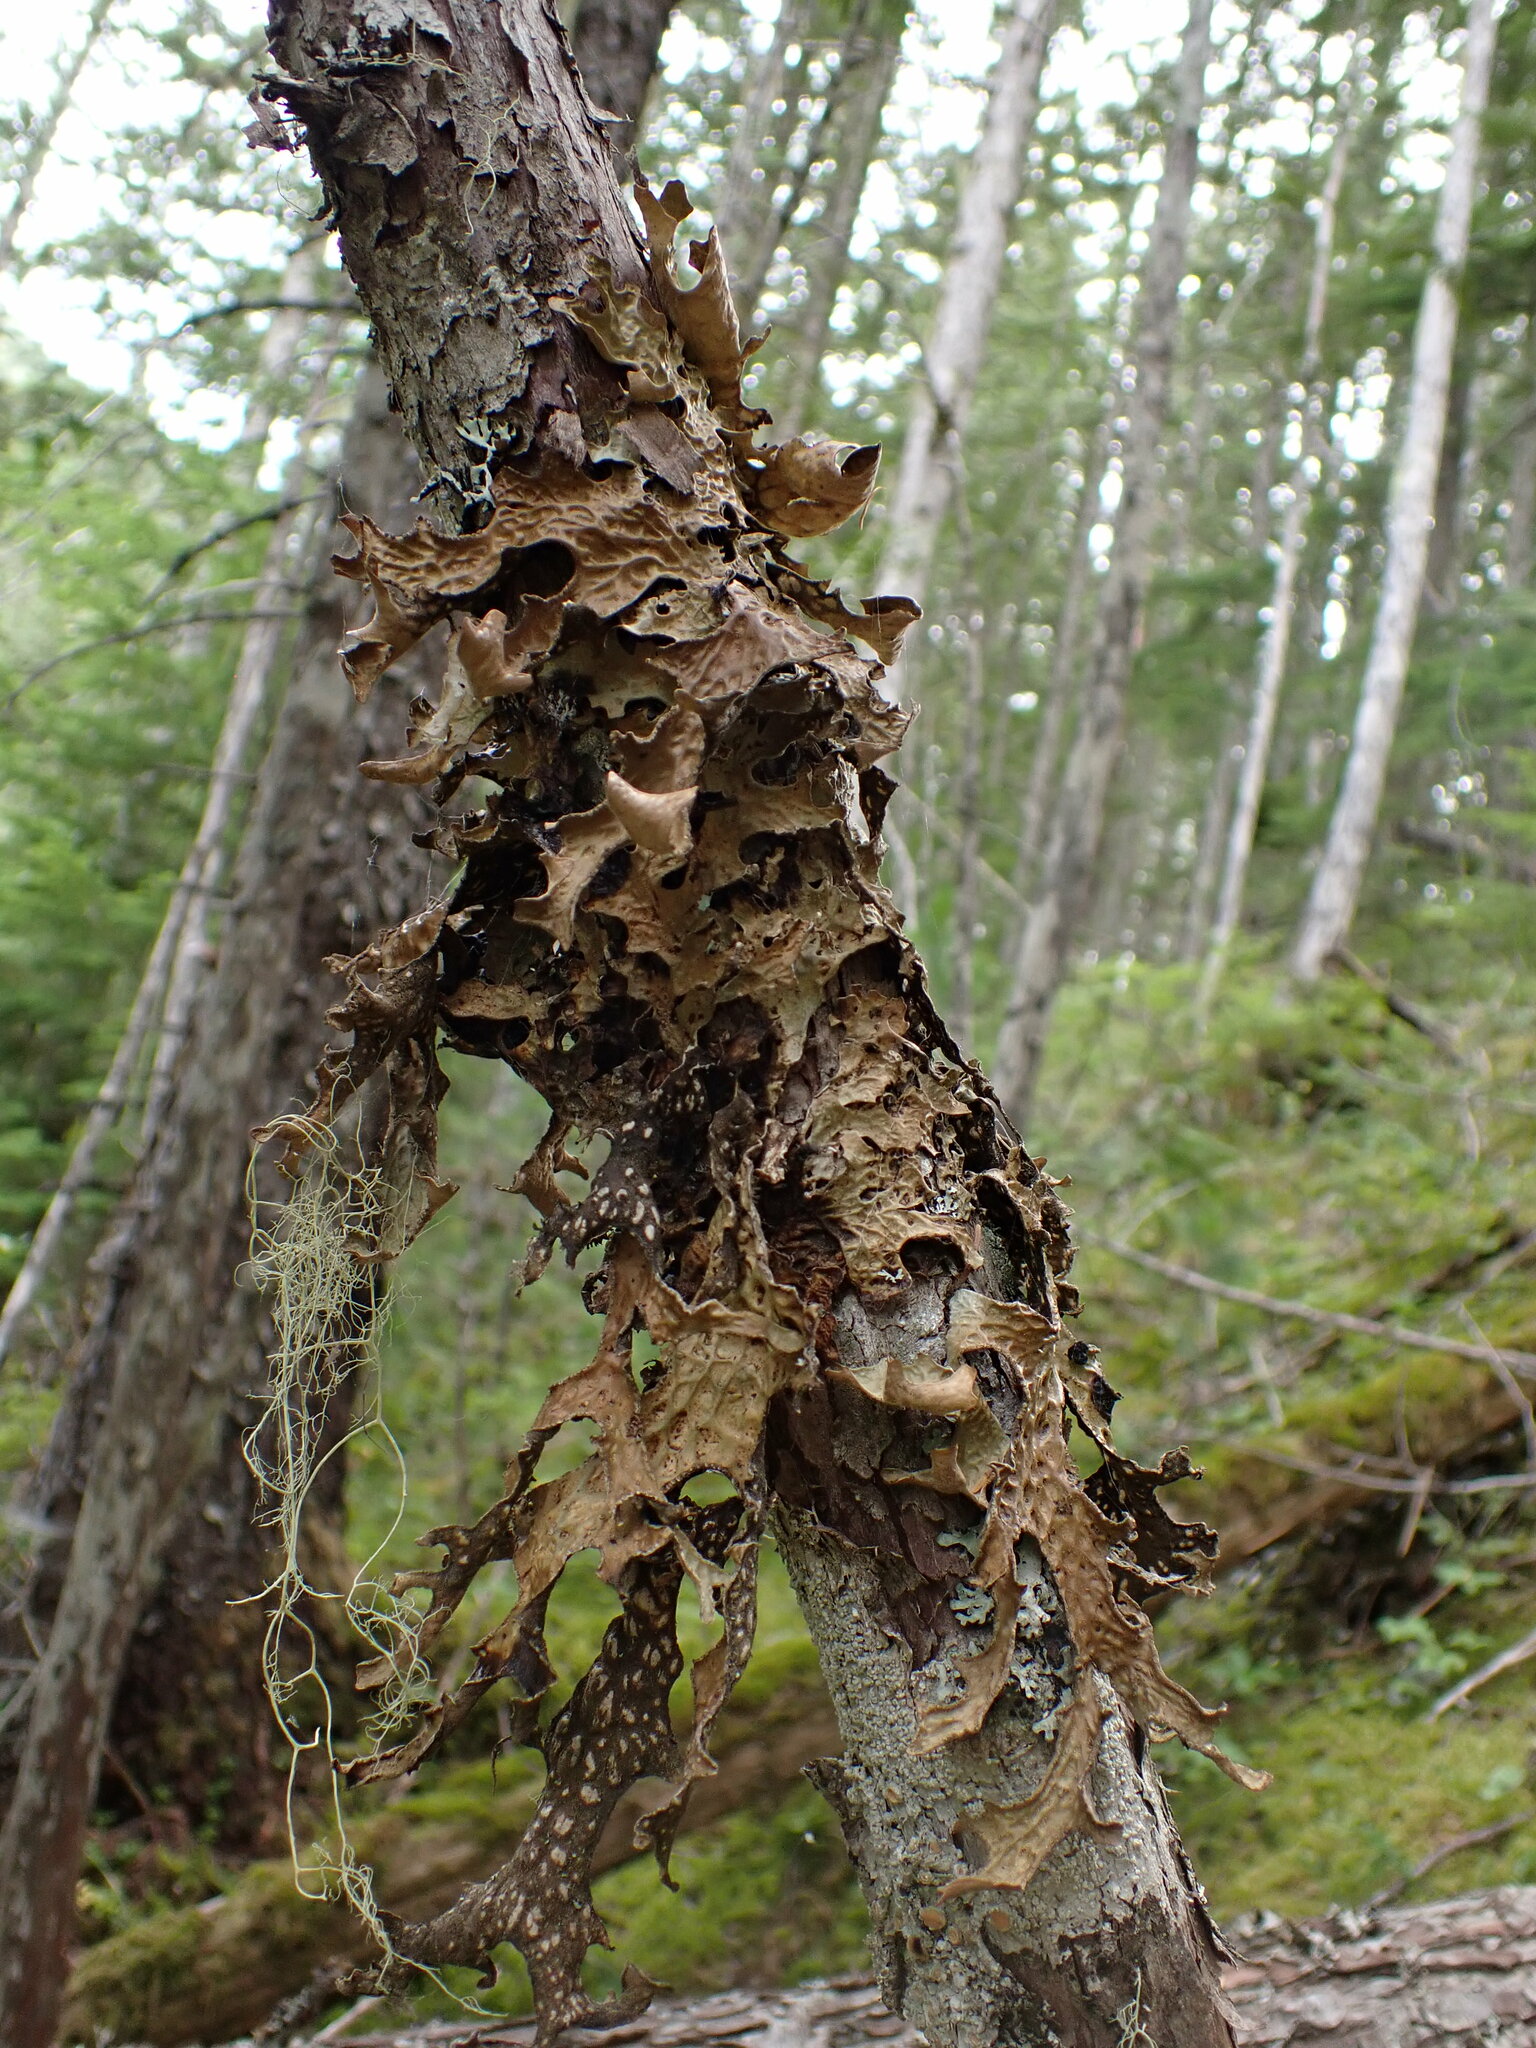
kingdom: Fungi
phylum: Ascomycota
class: Lecanoromycetes
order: Peltigerales
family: Lobariaceae
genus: Lobaria
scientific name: Lobaria pulmonaria
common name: Lungwort
